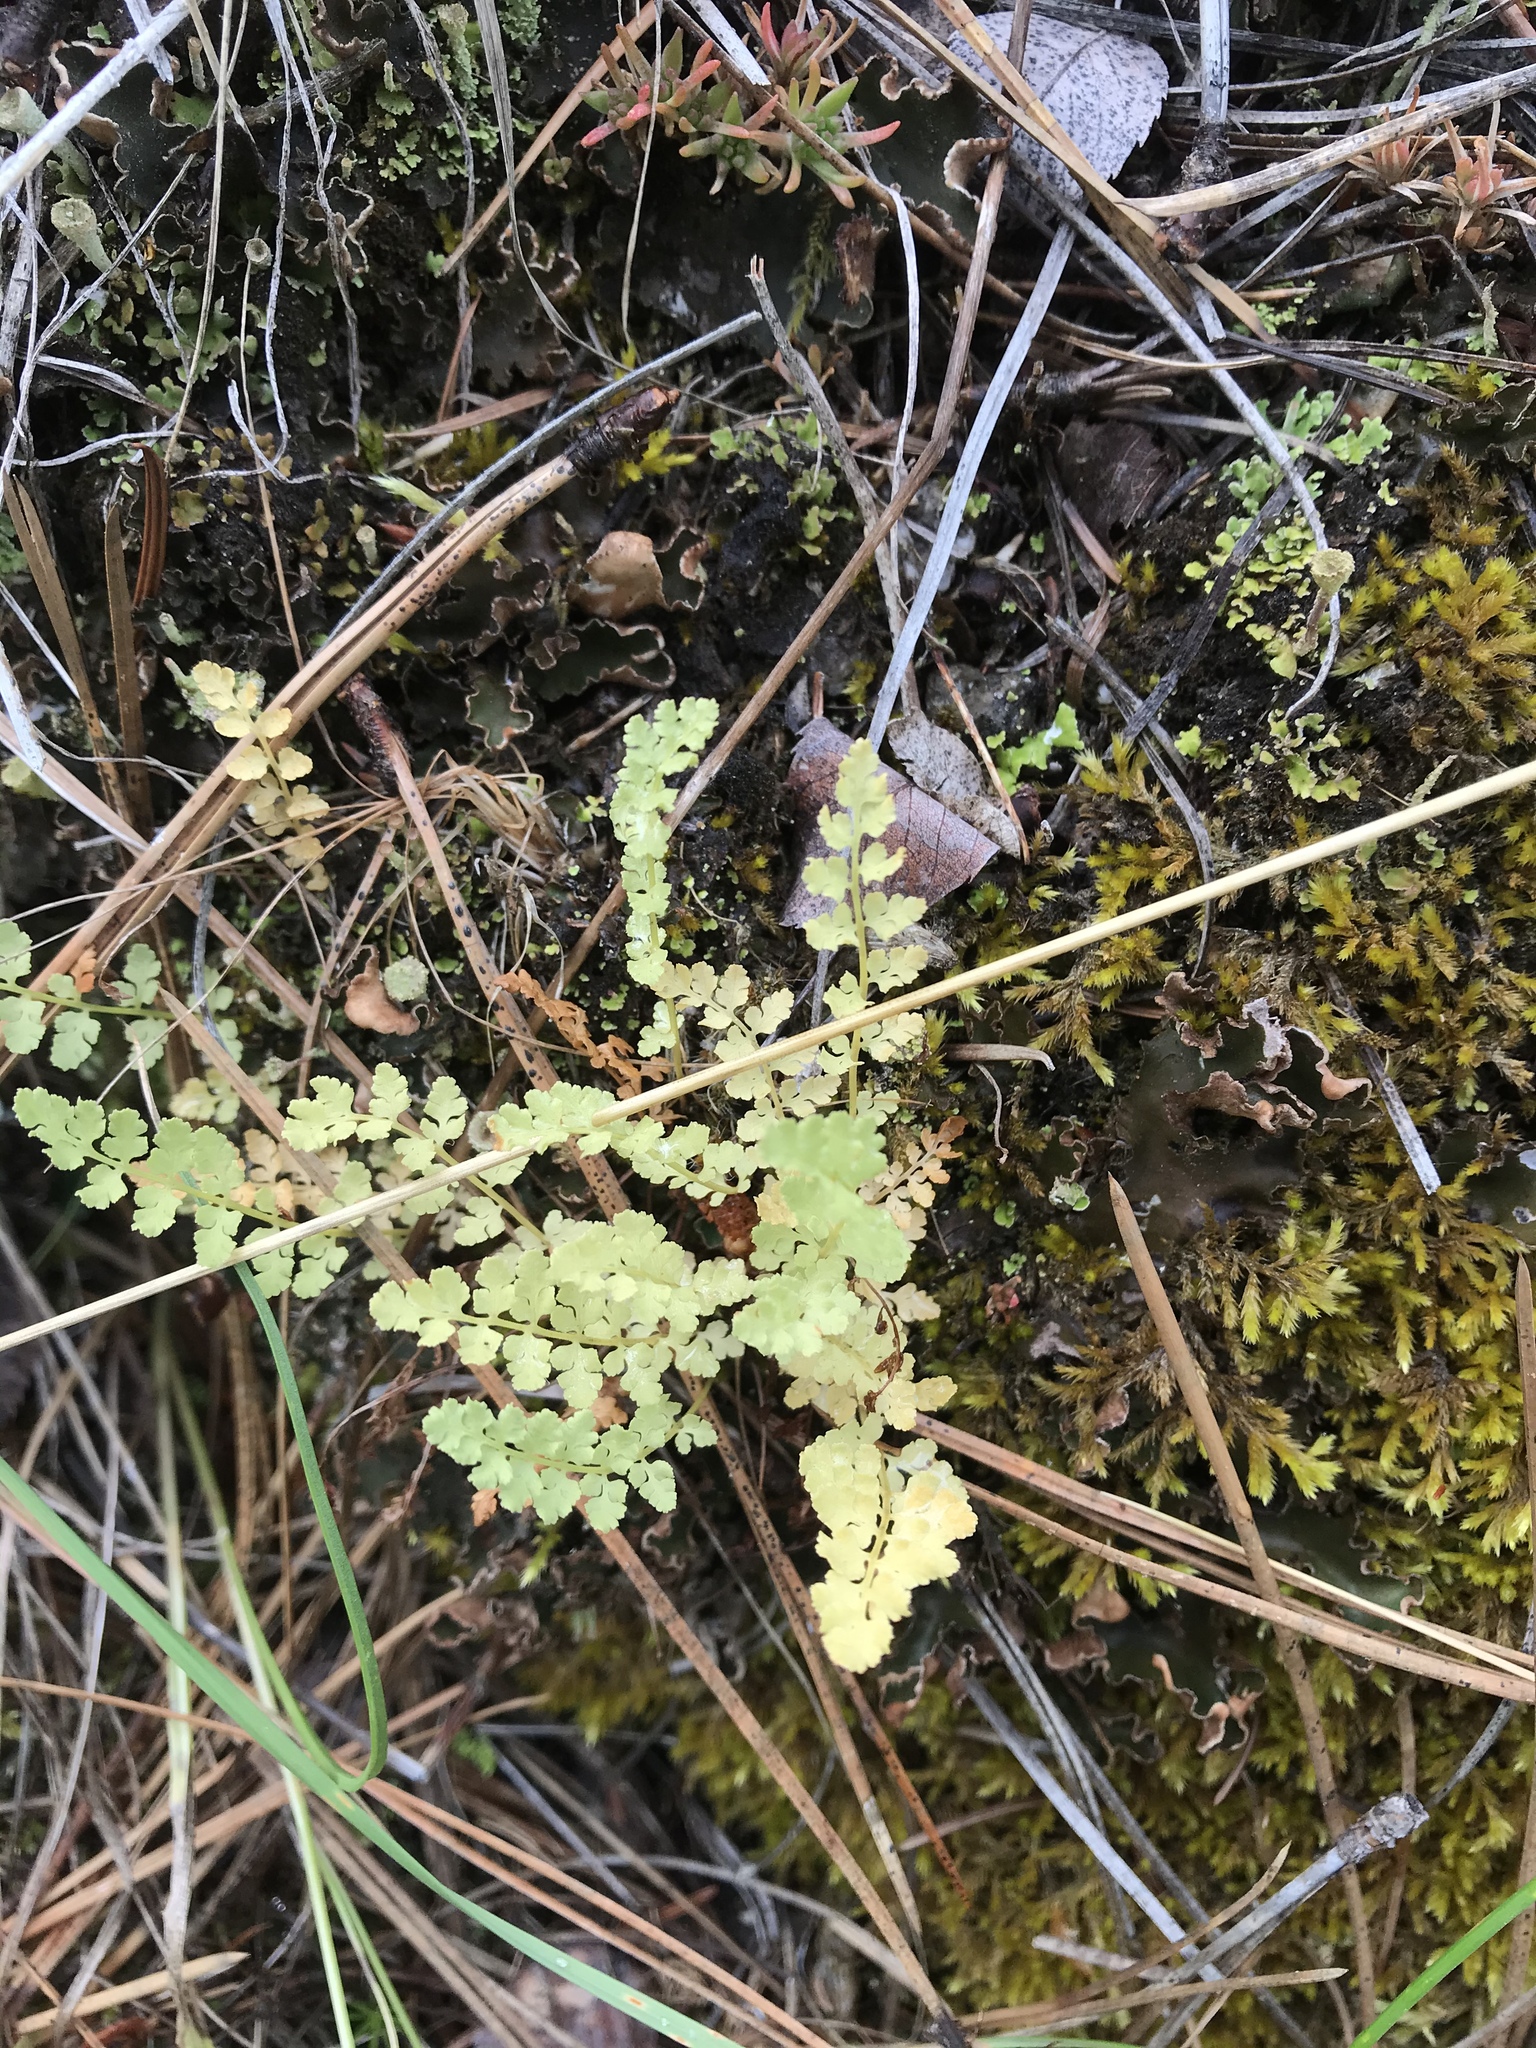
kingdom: Plantae
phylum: Tracheophyta
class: Polypodiopsida
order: Polypodiales
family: Cystopteridaceae
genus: Cystopteris
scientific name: Cystopteris fragilis
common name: Brittle bladder fern
